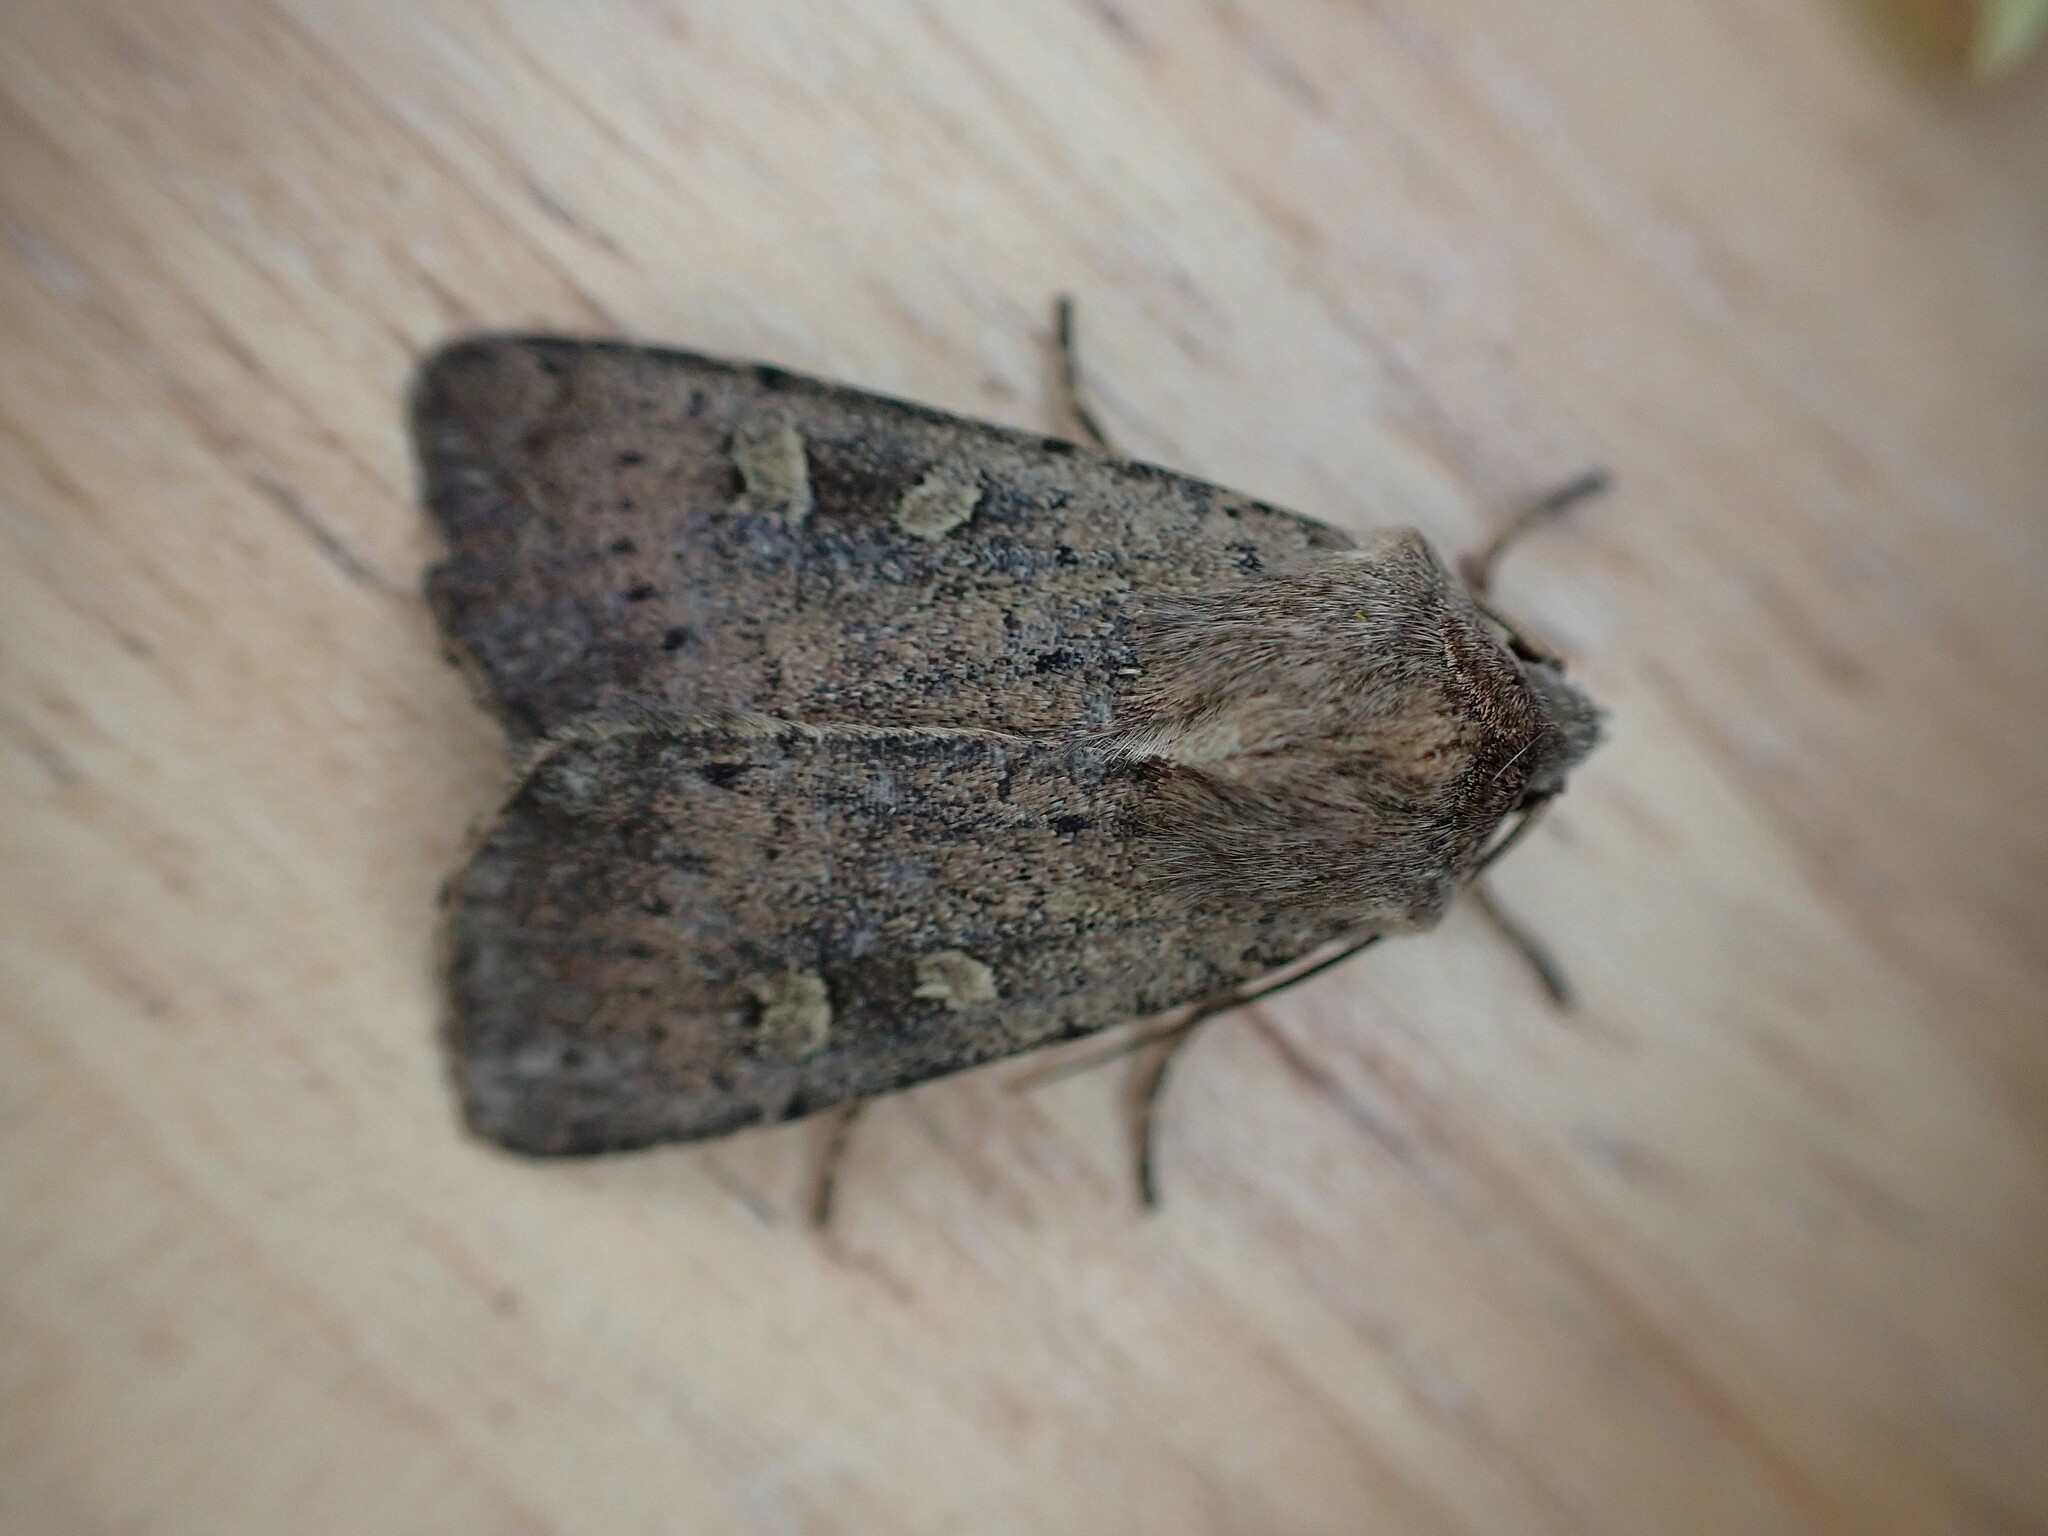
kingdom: Animalia
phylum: Arthropoda
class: Insecta
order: Lepidoptera
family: Noctuidae
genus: Xestia
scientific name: Xestia xanthographa
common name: Square-spot rustic
